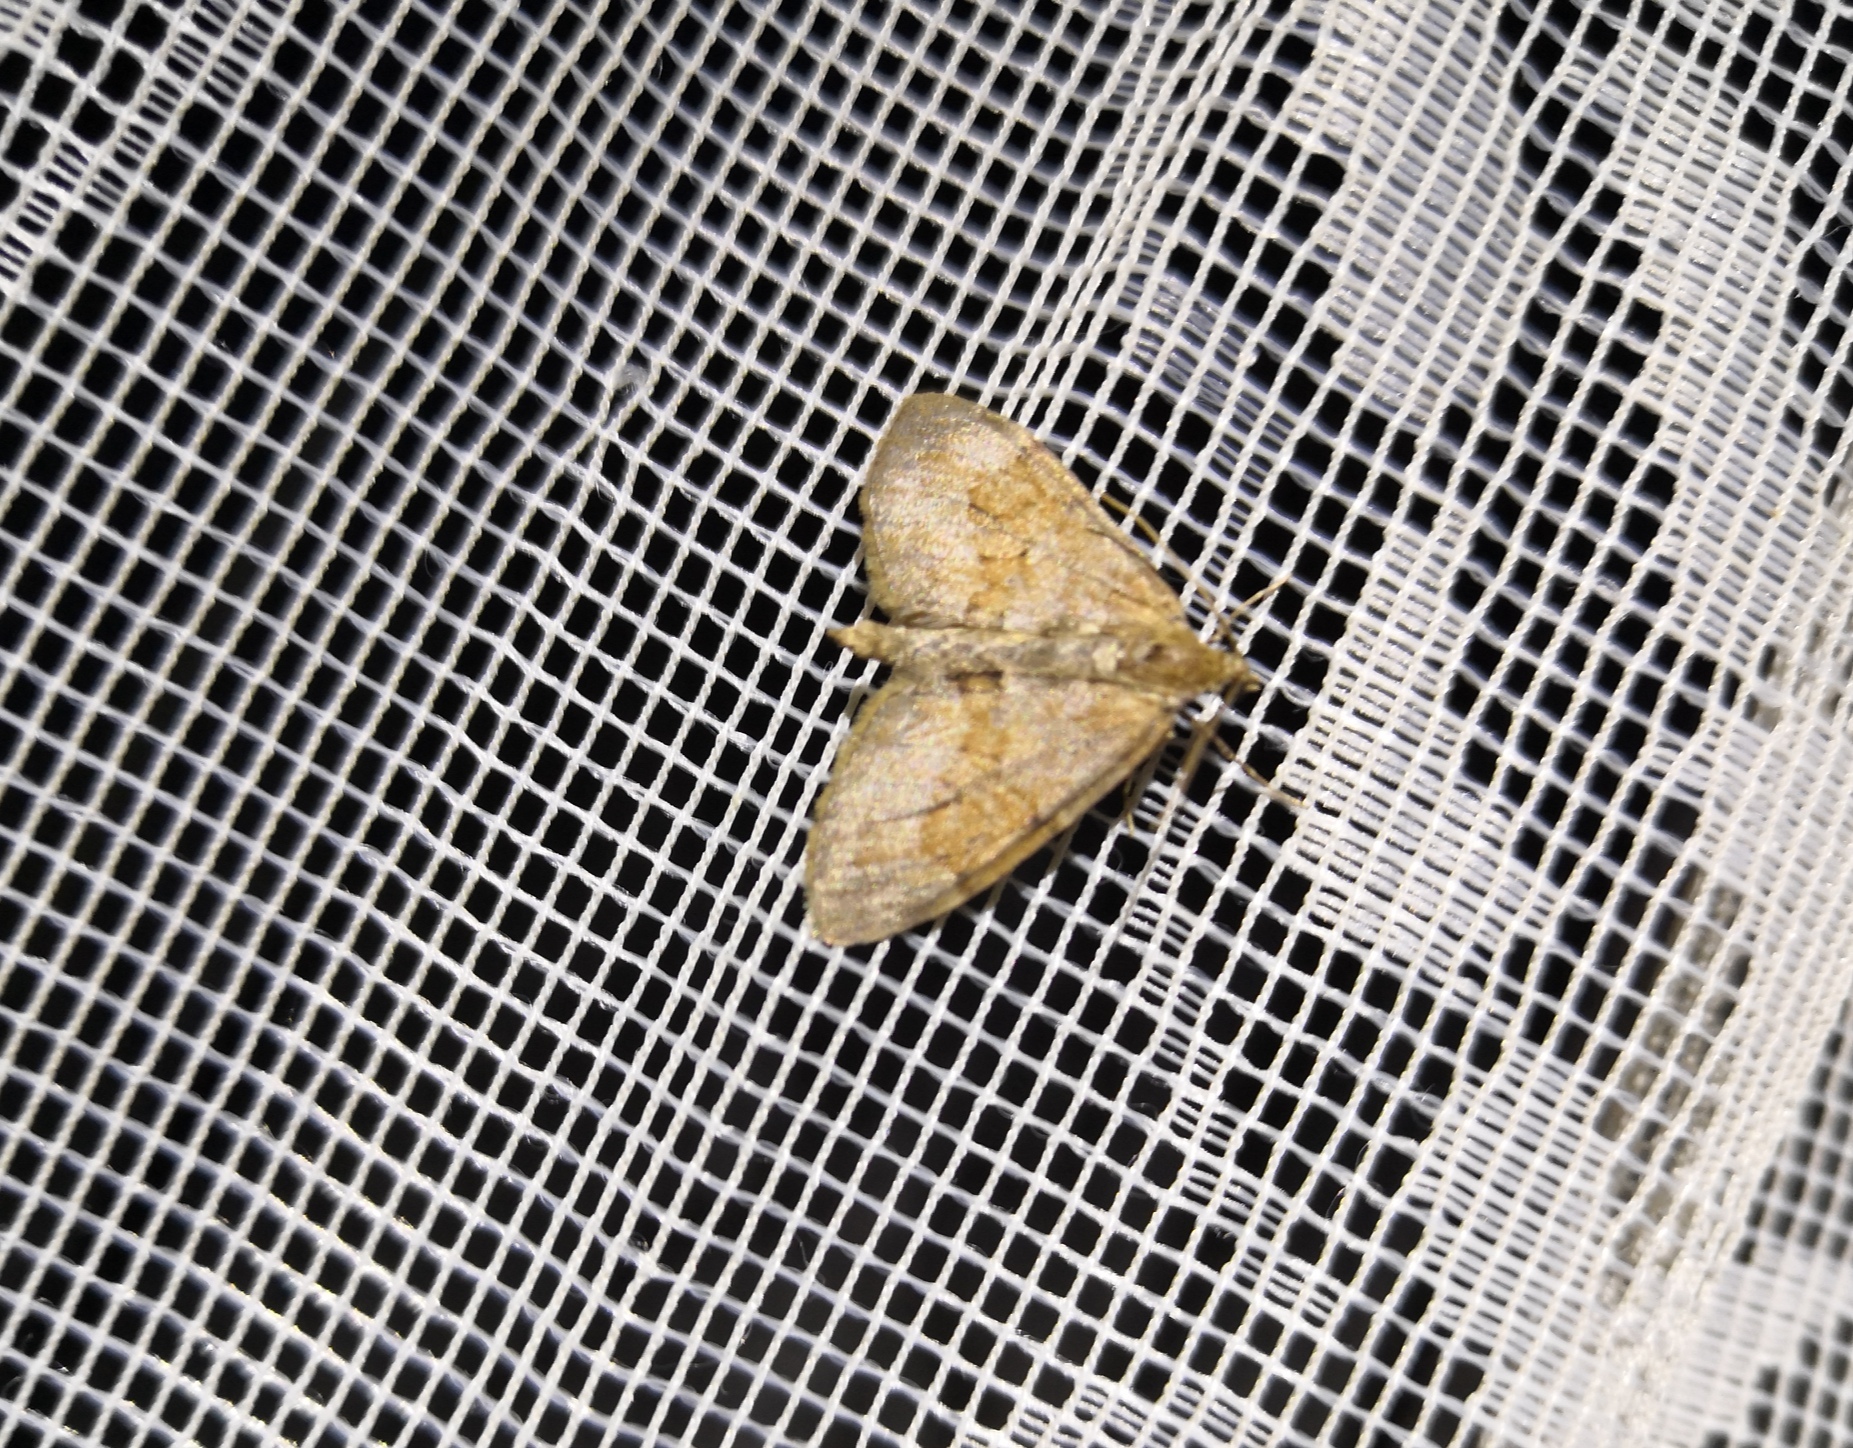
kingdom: Animalia
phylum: Arthropoda
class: Insecta
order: Lepidoptera
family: Geometridae
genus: Thera
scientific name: Thera obeliscata
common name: Grey pine carpet
